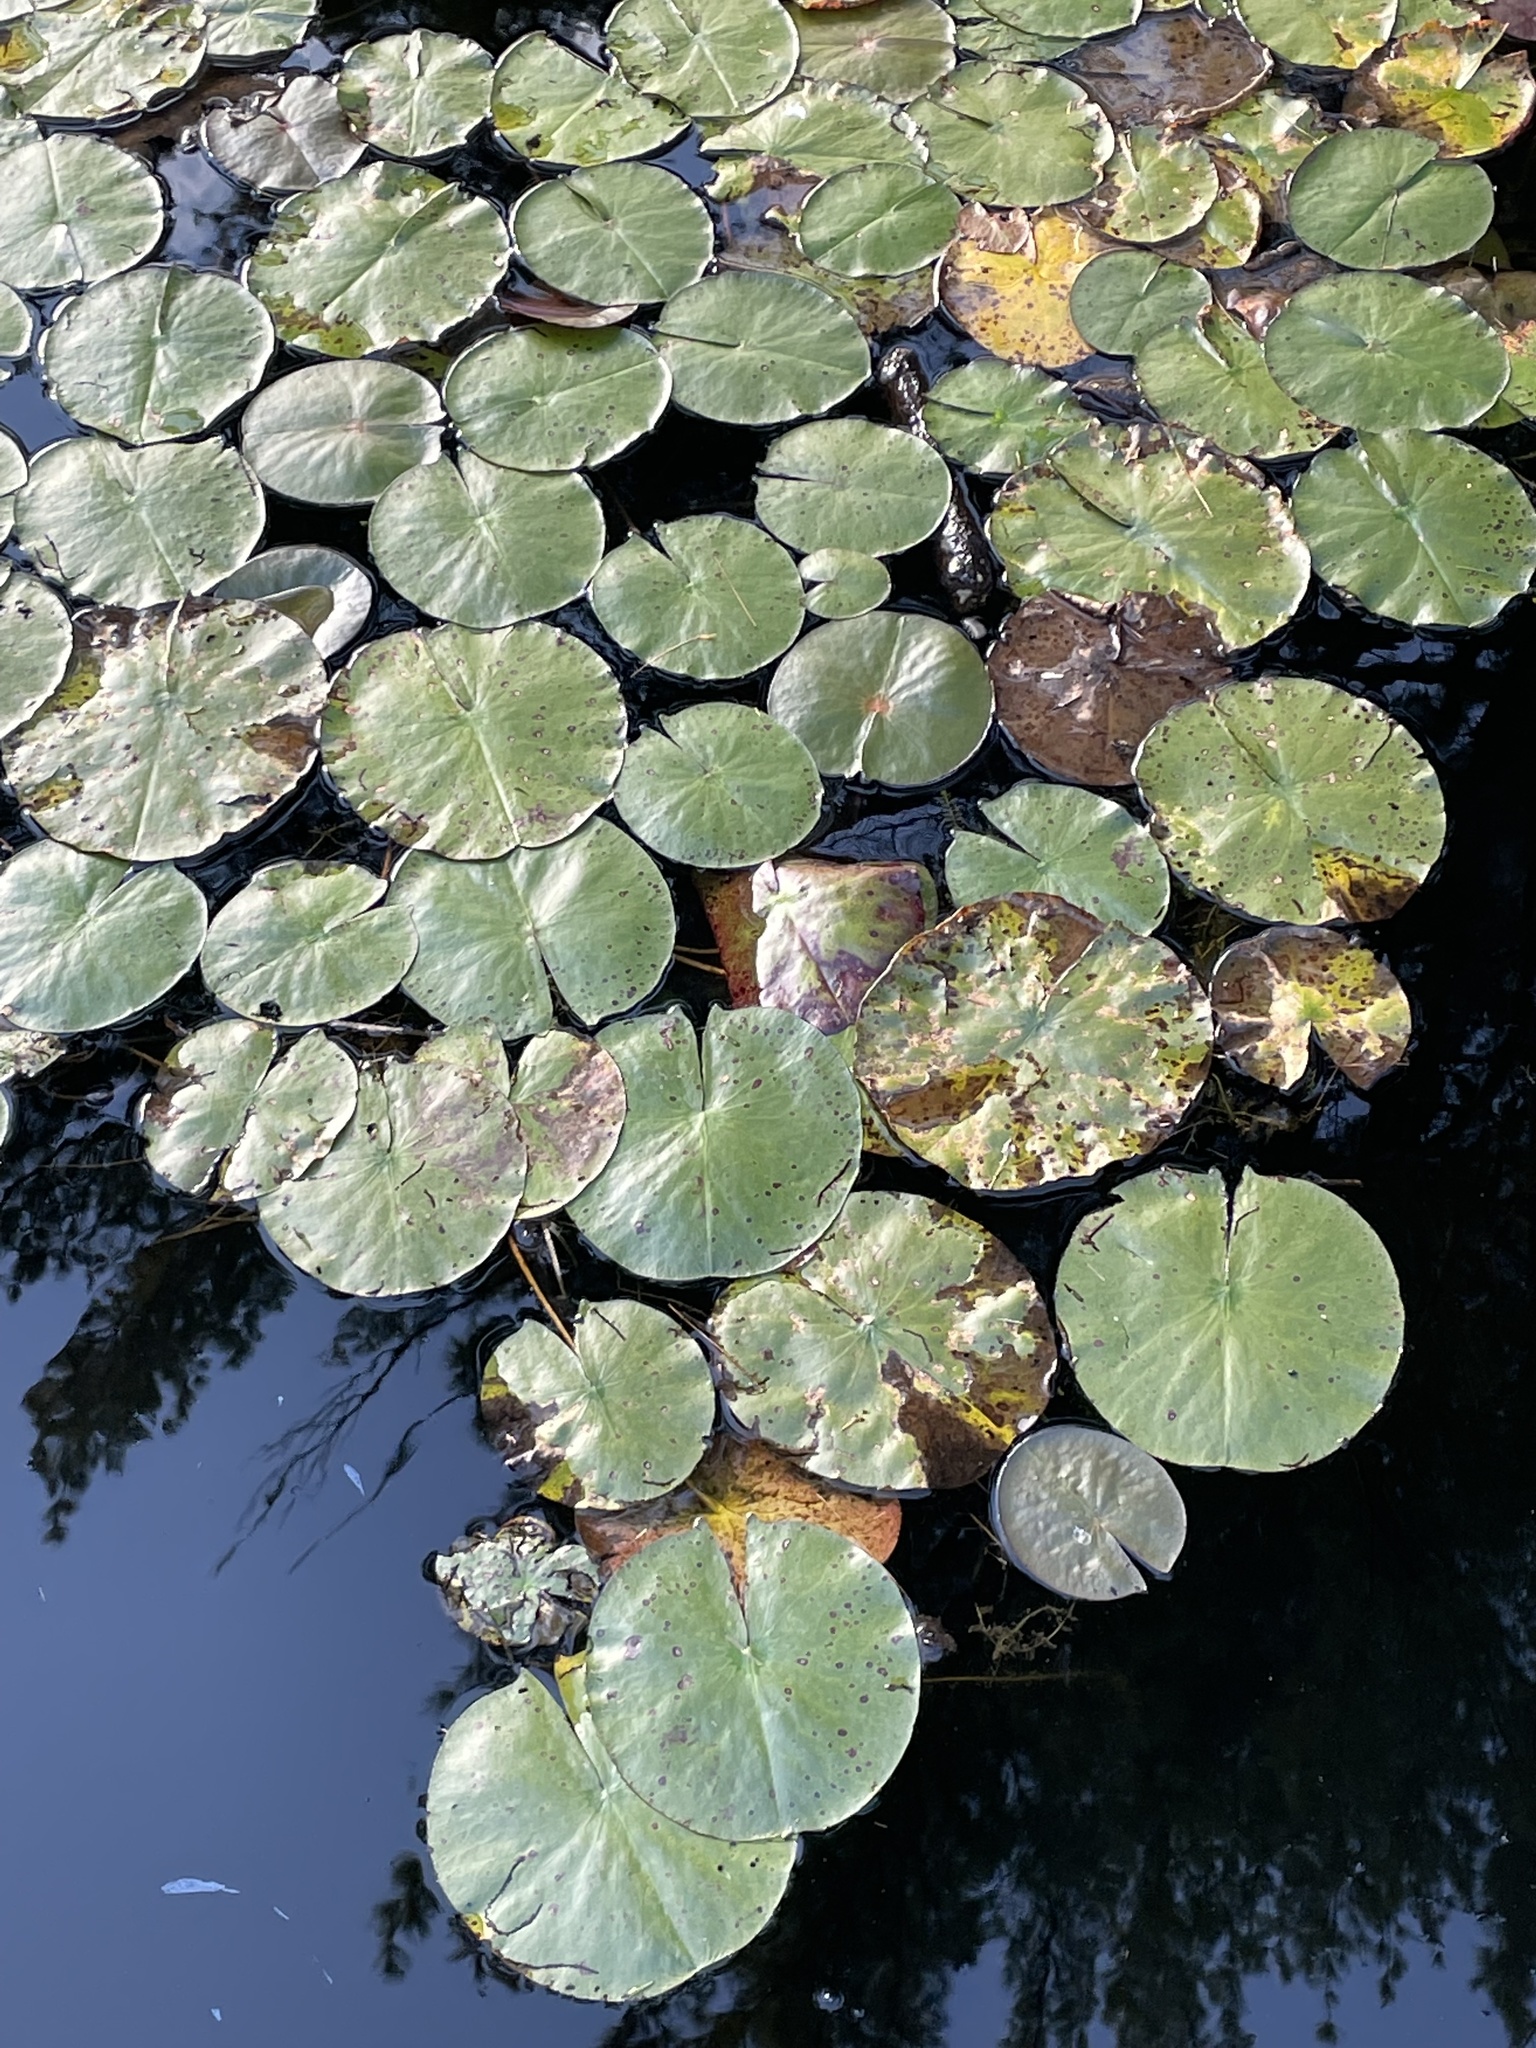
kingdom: Plantae
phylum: Tracheophyta
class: Magnoliopsida
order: Nymphaeales
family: Nymphaeaceae
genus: Nymphaea
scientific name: Nymphaea odorata
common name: Fragrant water-lily
